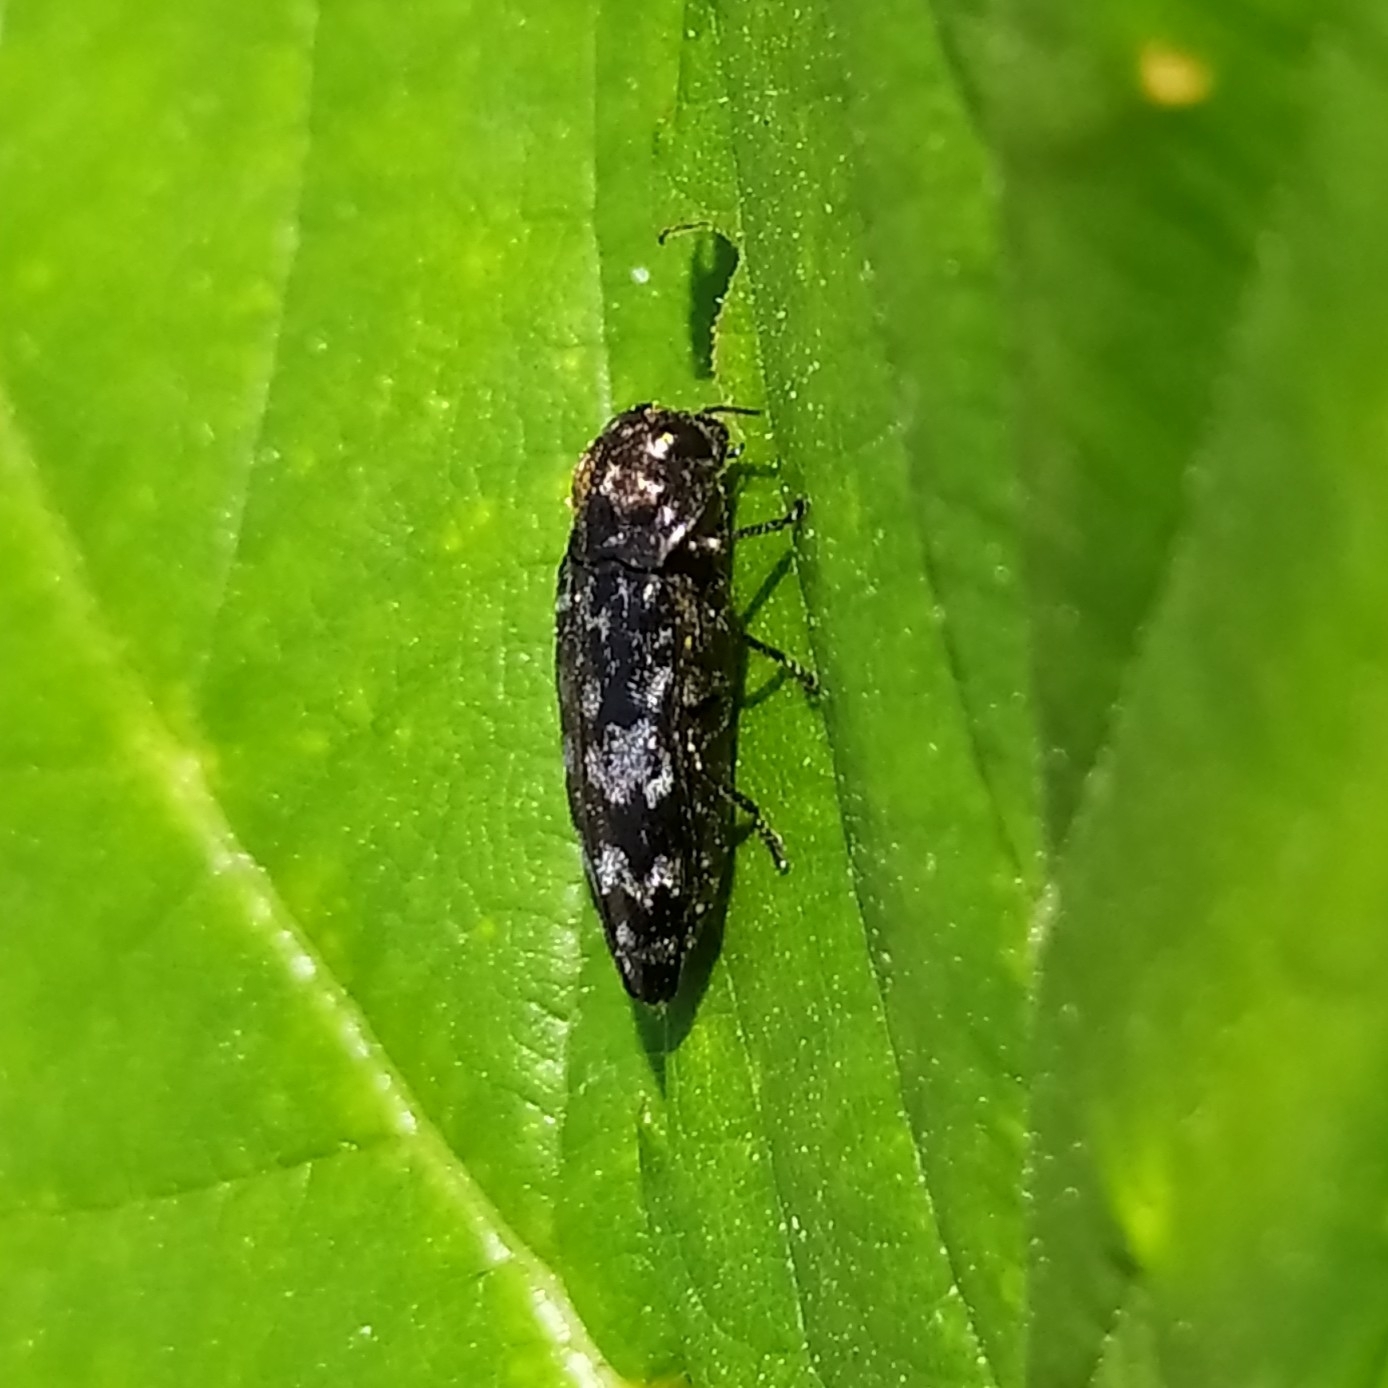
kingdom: Animalia
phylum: Arthropoda
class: Insecta
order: Coleoptera
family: Buprestidae
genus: Coraebus
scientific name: Coraebus rubi
